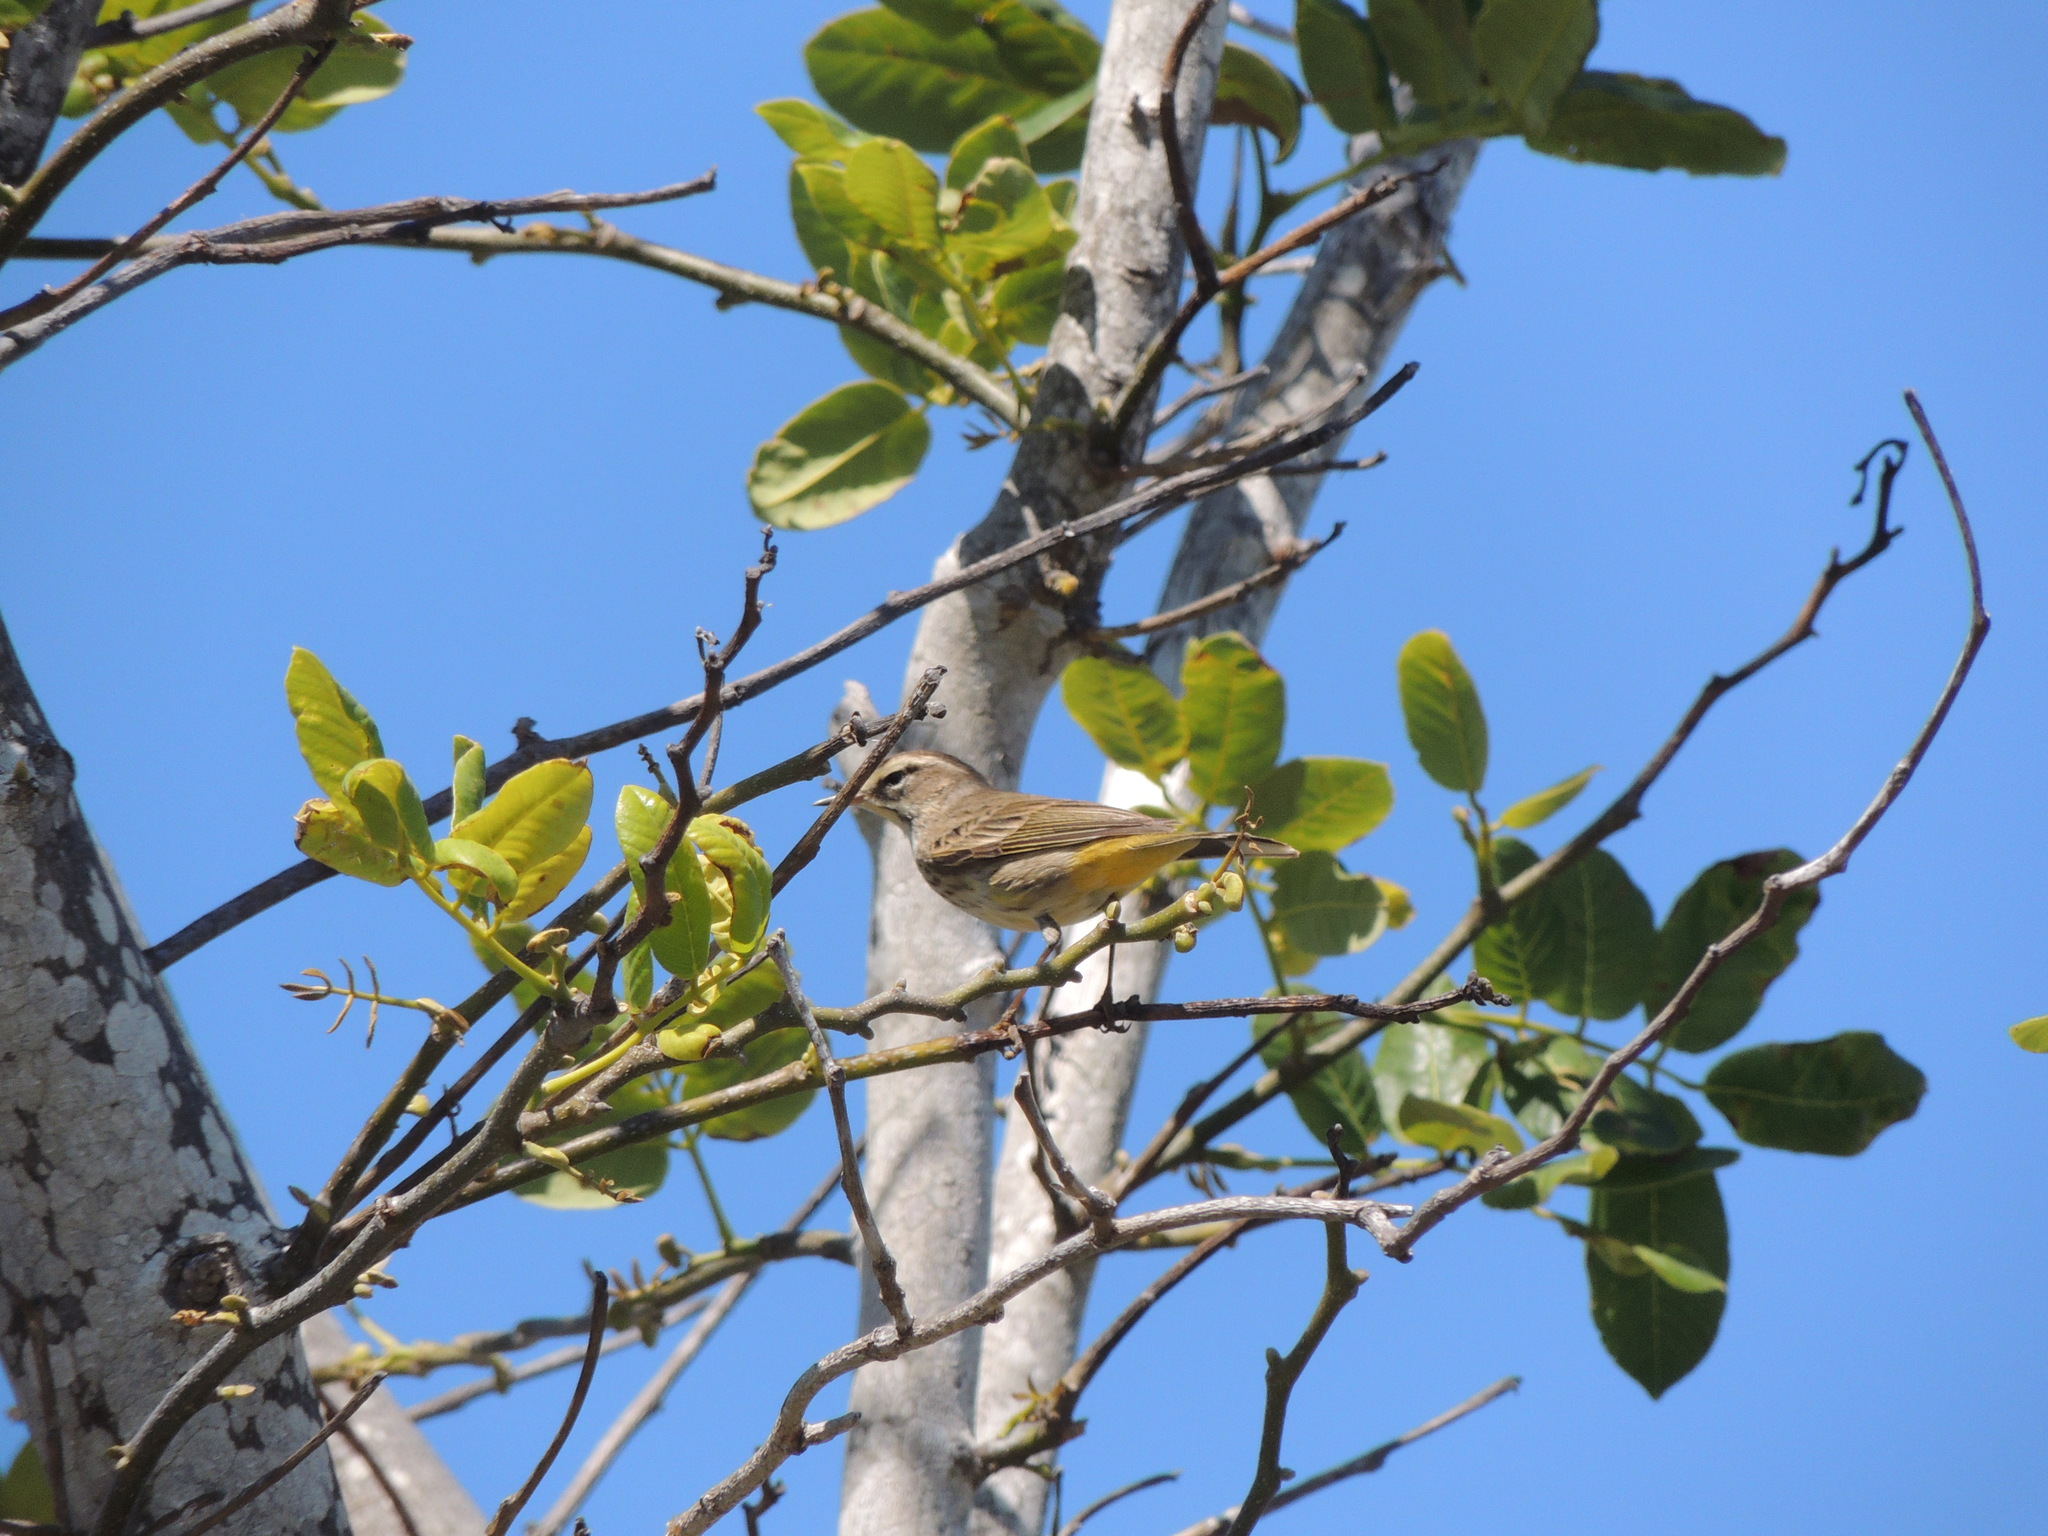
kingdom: Animalia
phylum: Chordata
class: Aves
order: Passeriformes
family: Parulidae
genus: Setophaga
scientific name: Setophaga palmarum
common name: Palm warbler
